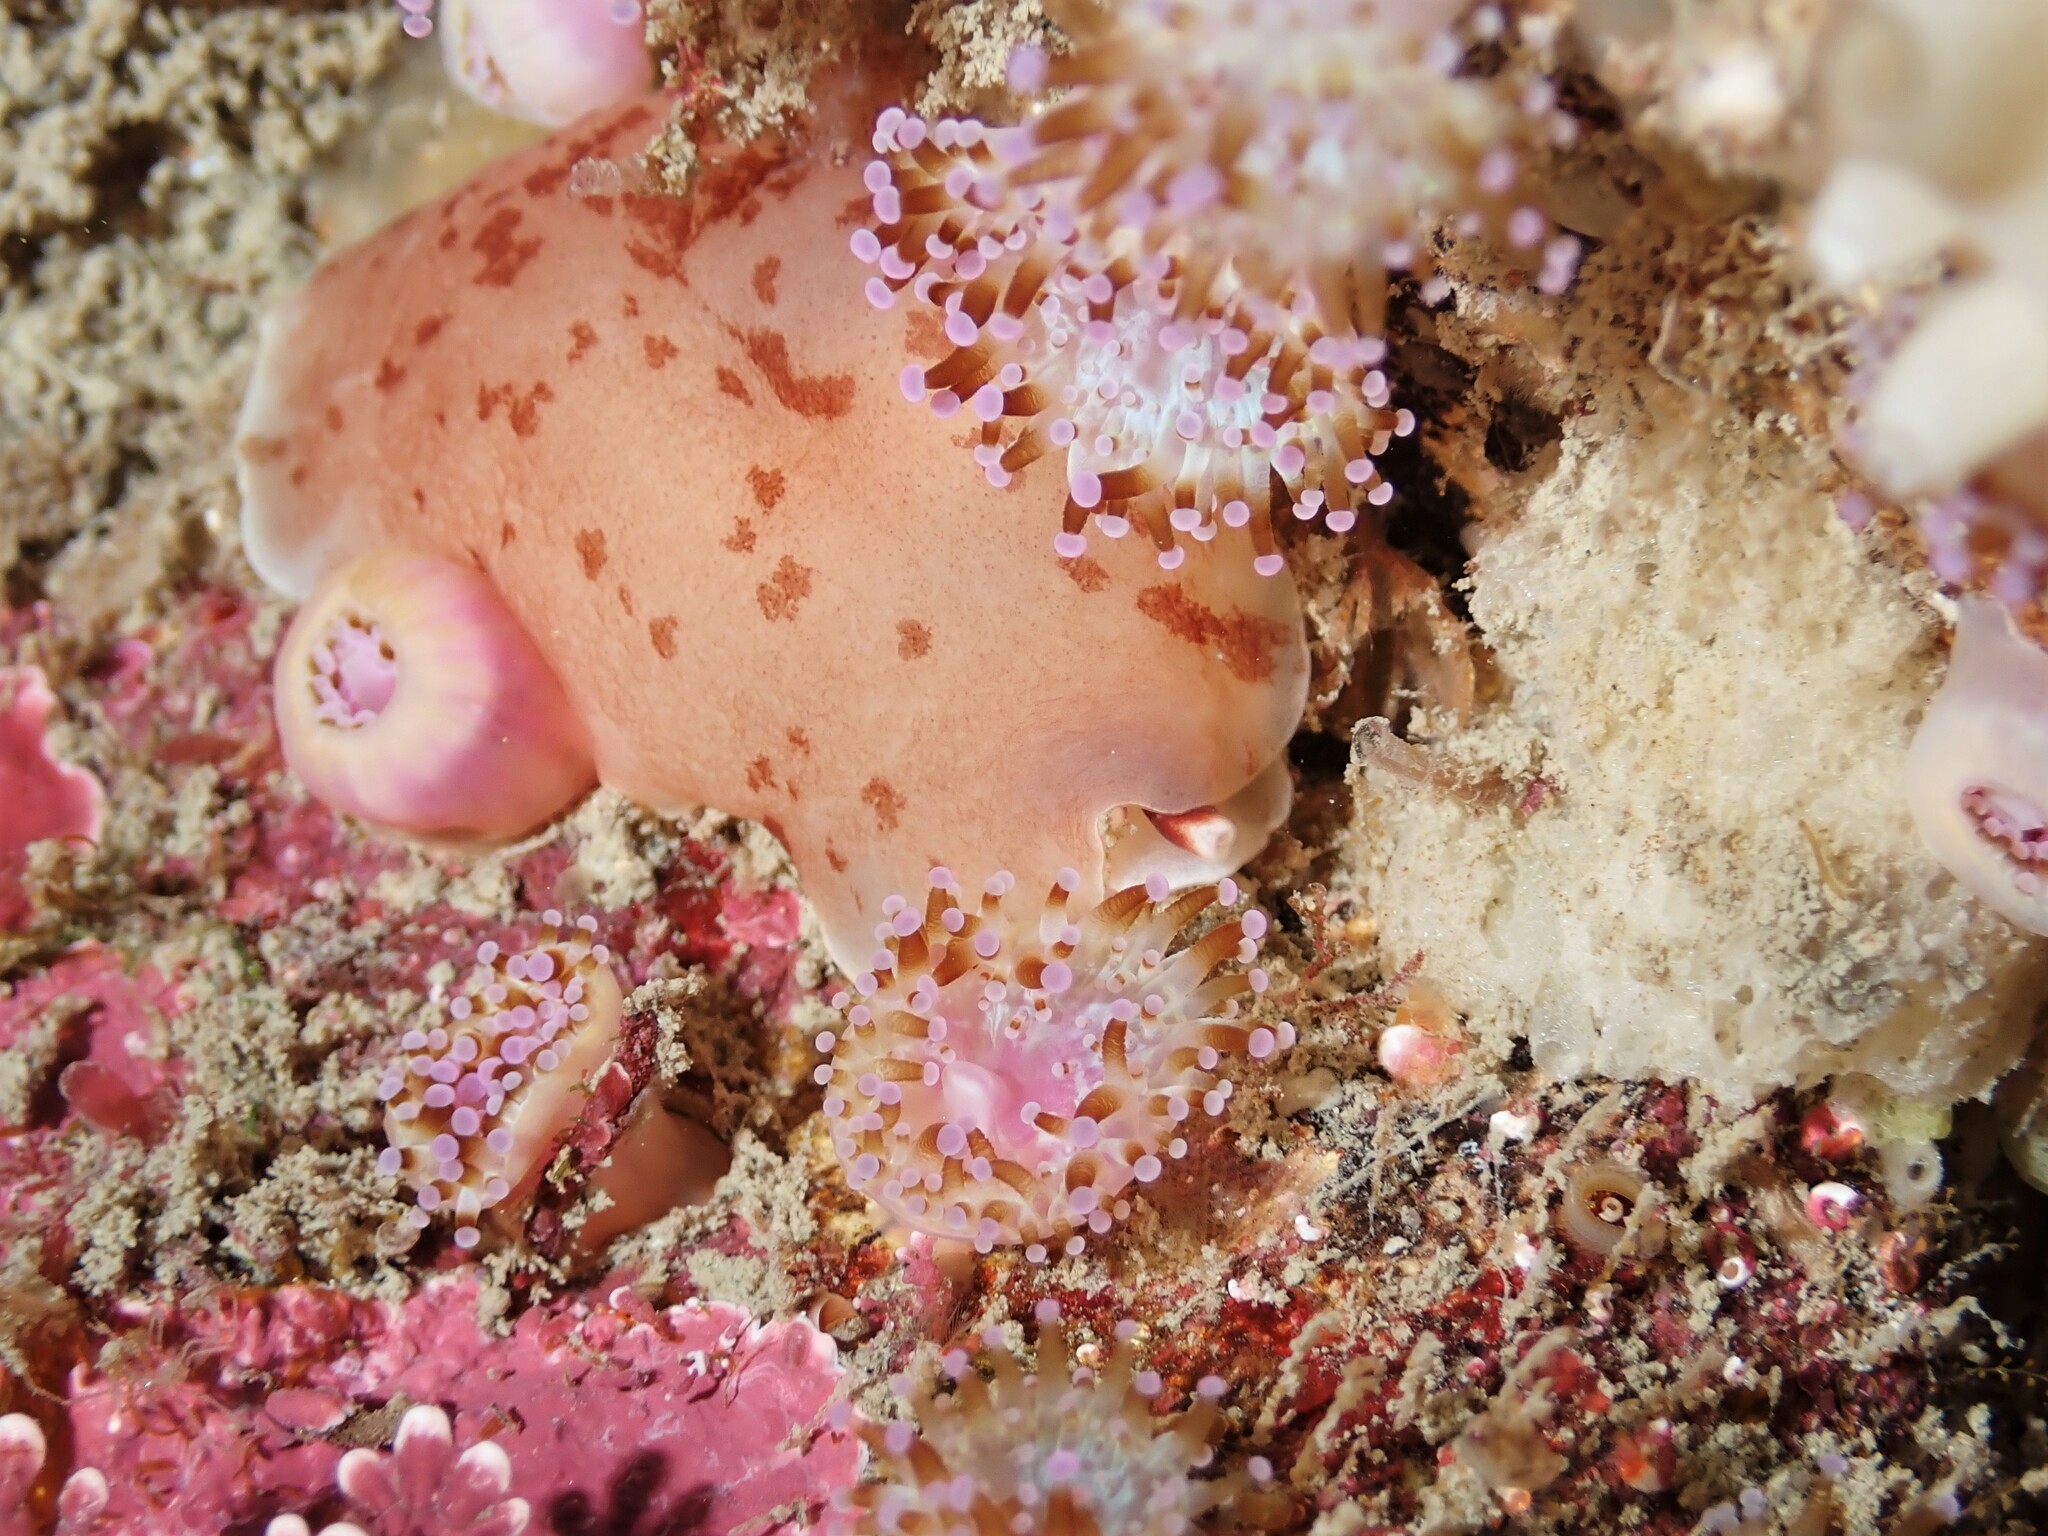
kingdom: Animalia
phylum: Mollusca
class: Gastropoda
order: Pleurobranchida
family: Pleurobranchidae
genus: Berthella
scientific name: Berthella ornata
